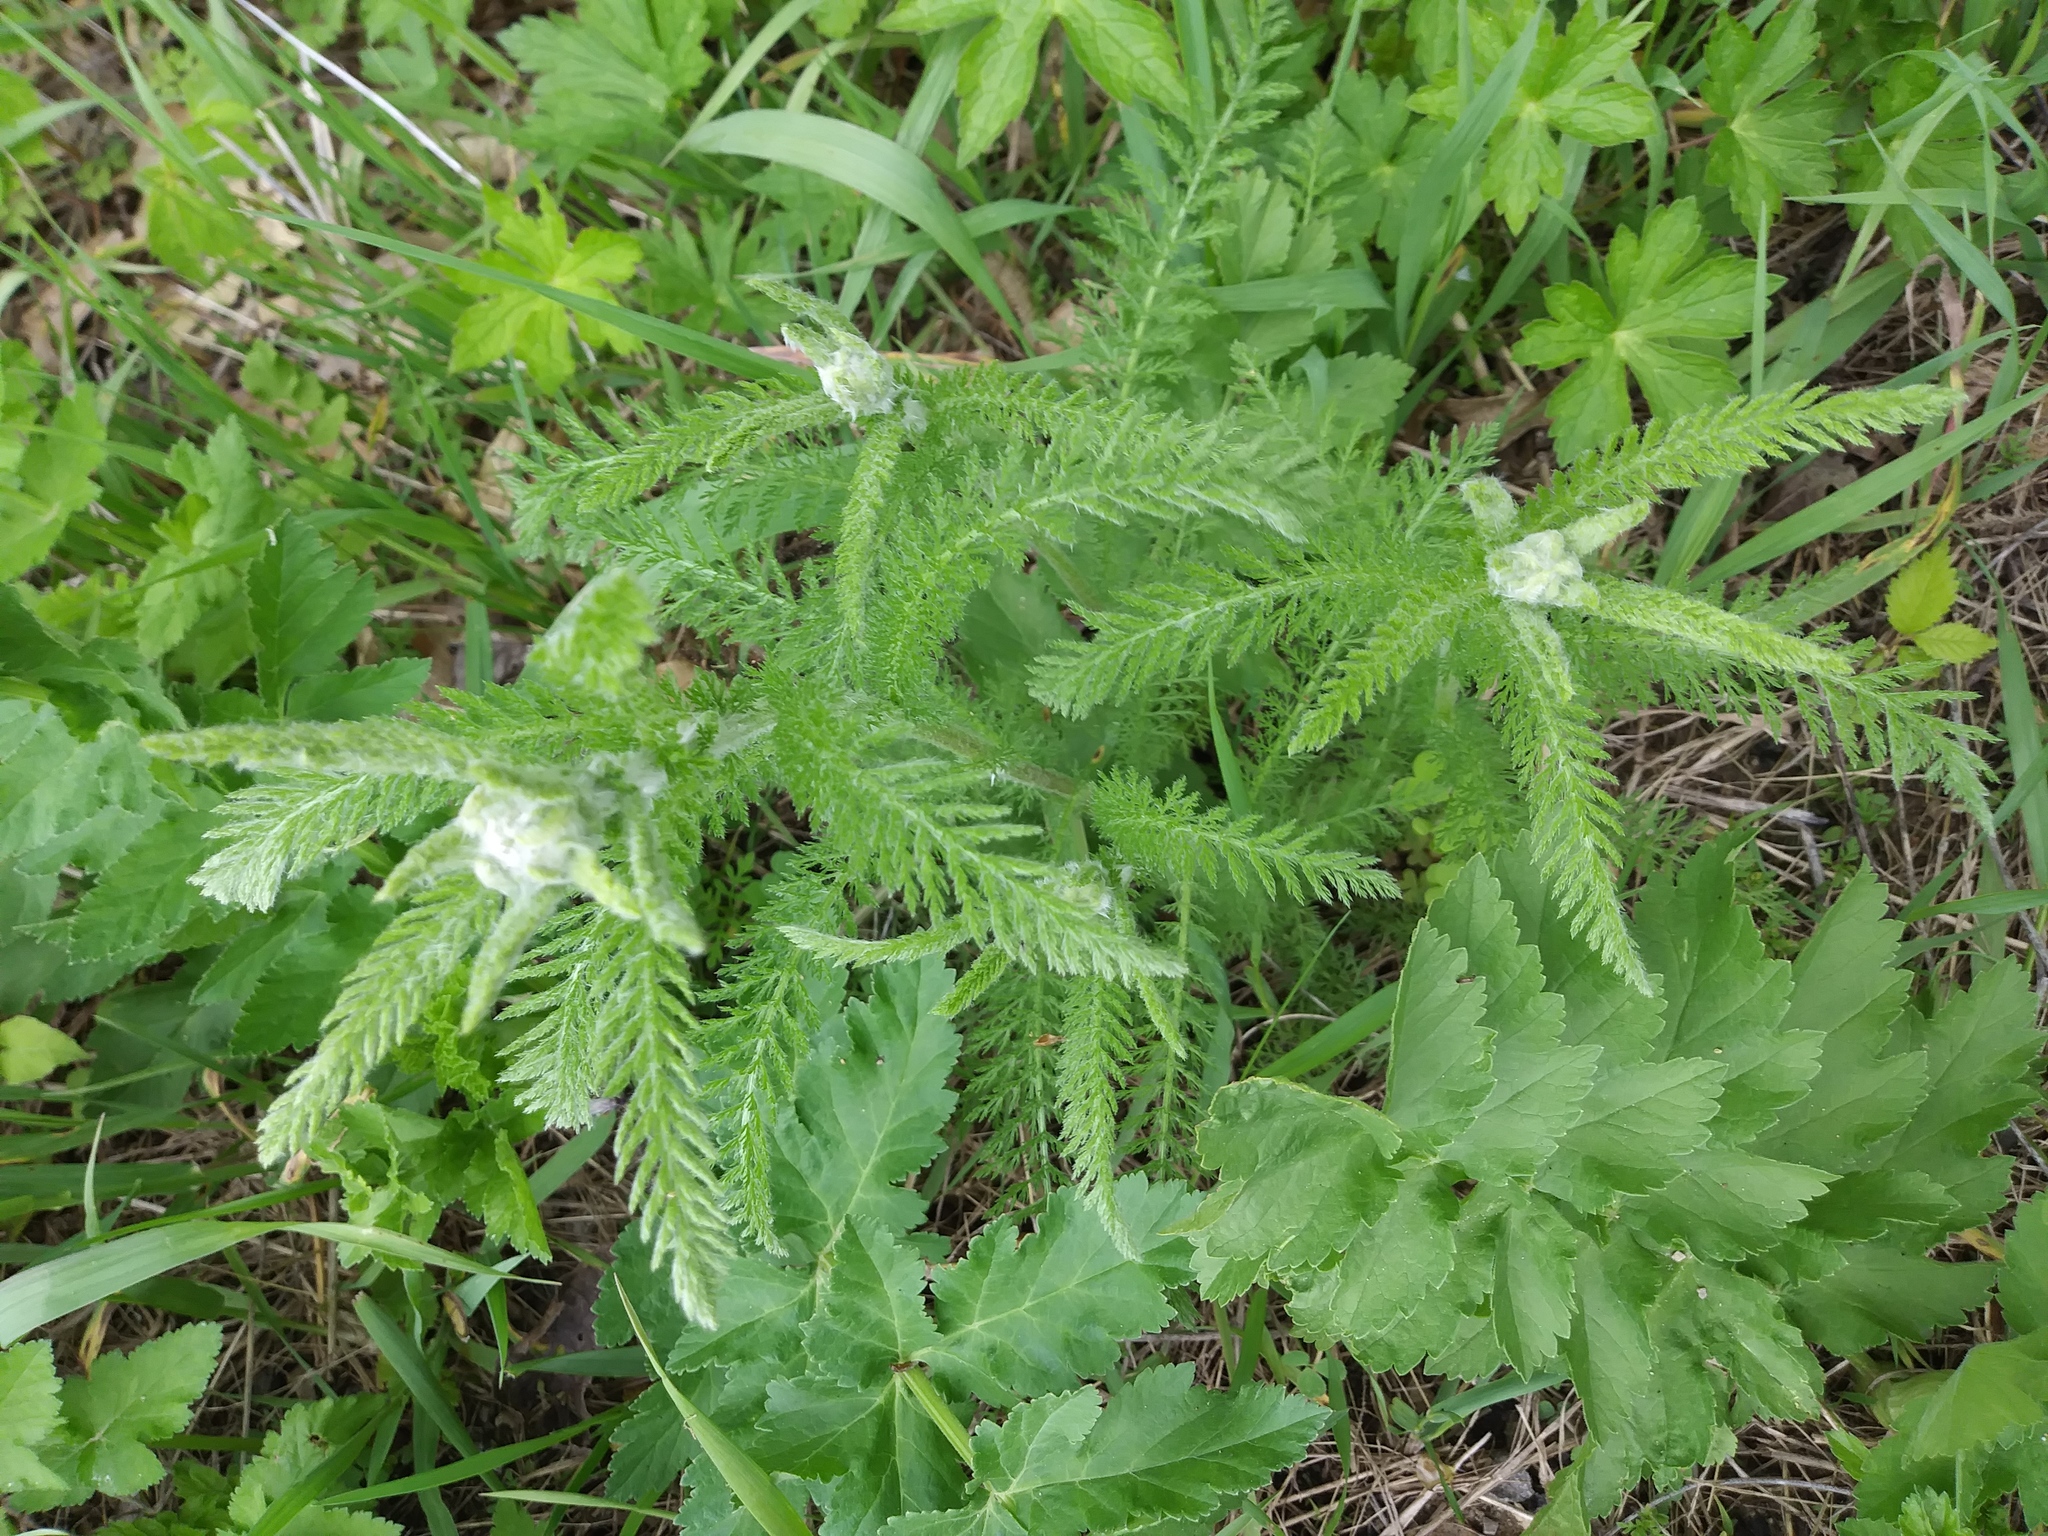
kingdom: Plantae
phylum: Tracheophyta
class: Magnoliopsida
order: Asterales
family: Asteraceae
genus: Achillea
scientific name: Achillea millefolium
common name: Yarrow
